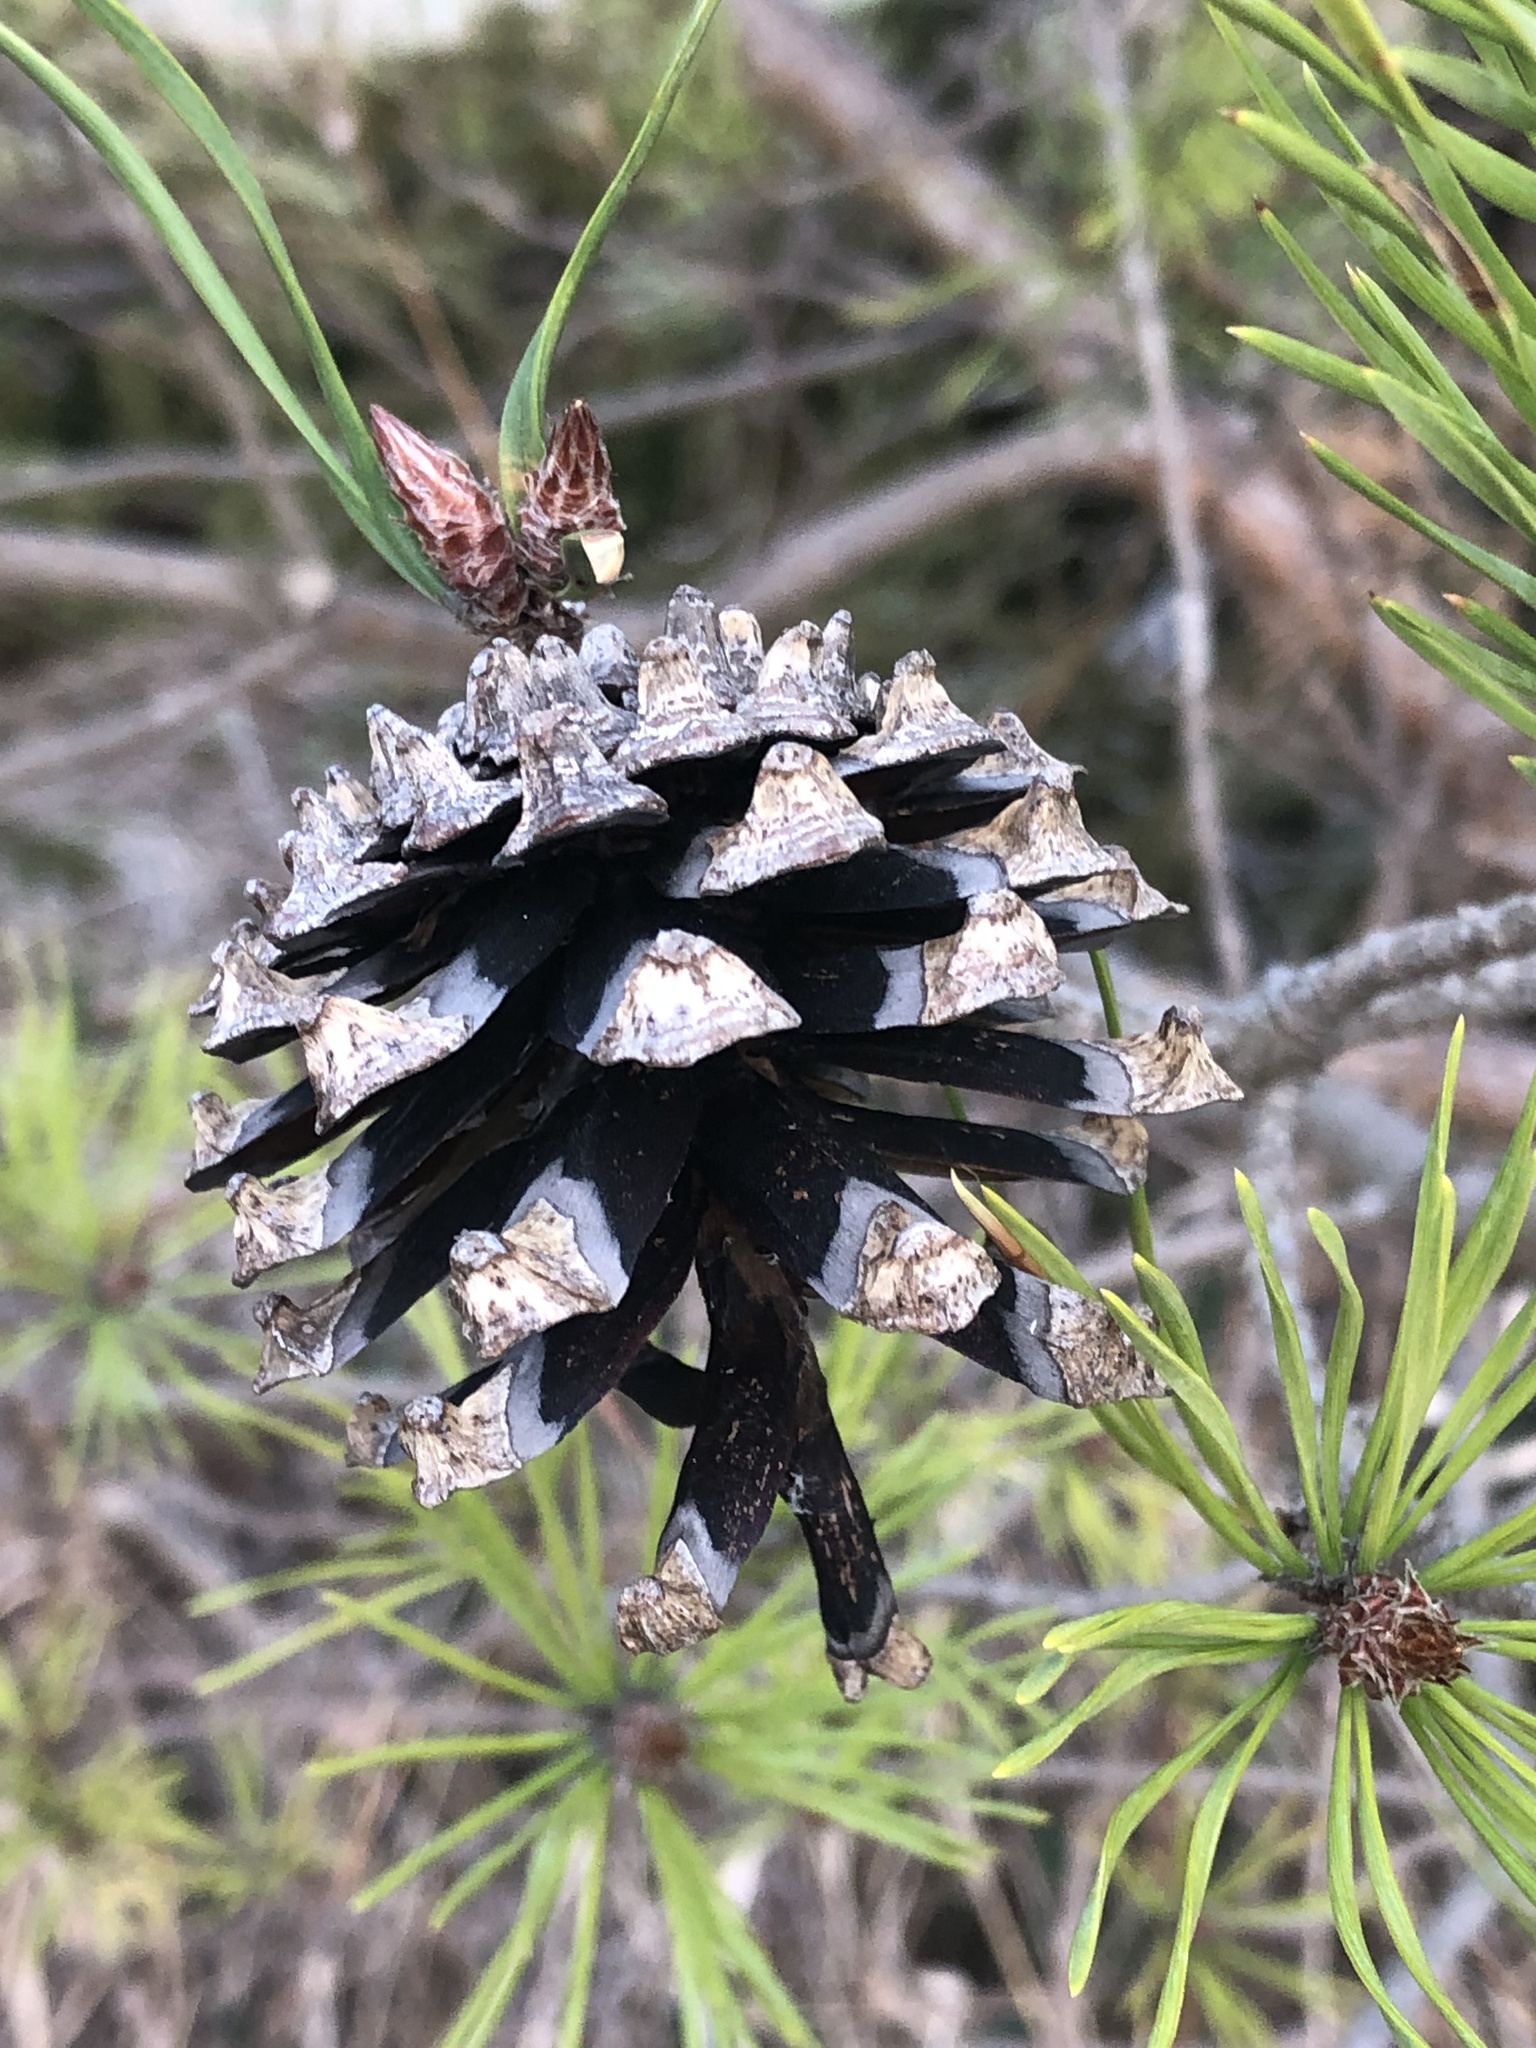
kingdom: Plantae
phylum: Tracheophyta
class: Pinopsida
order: Pinales
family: Pinaceae
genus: Pinus
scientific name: Pinus sylvestris
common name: Scots pine
